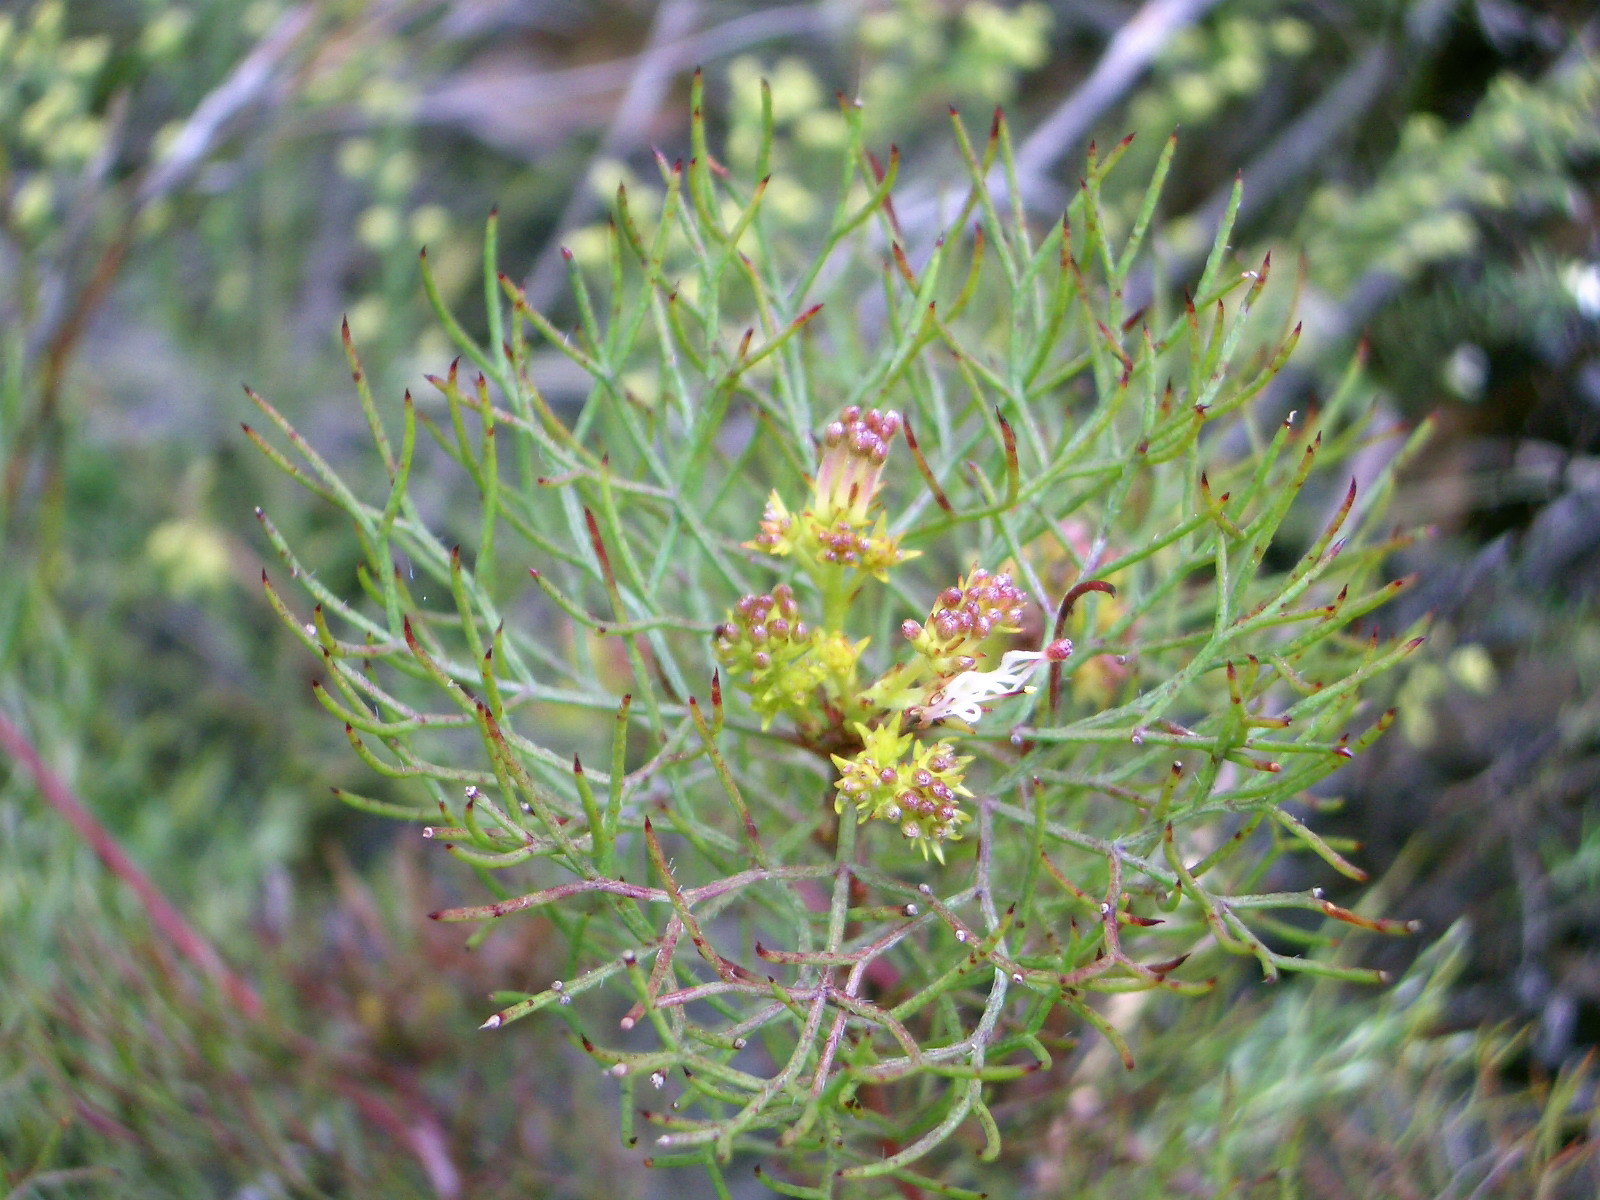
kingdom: Plantae
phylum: Tracheophyta
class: Magnoliopsida
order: Proteales
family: Proteaceae
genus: Serruria
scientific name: Serruria fasciflora
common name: Common pin spiderhead
